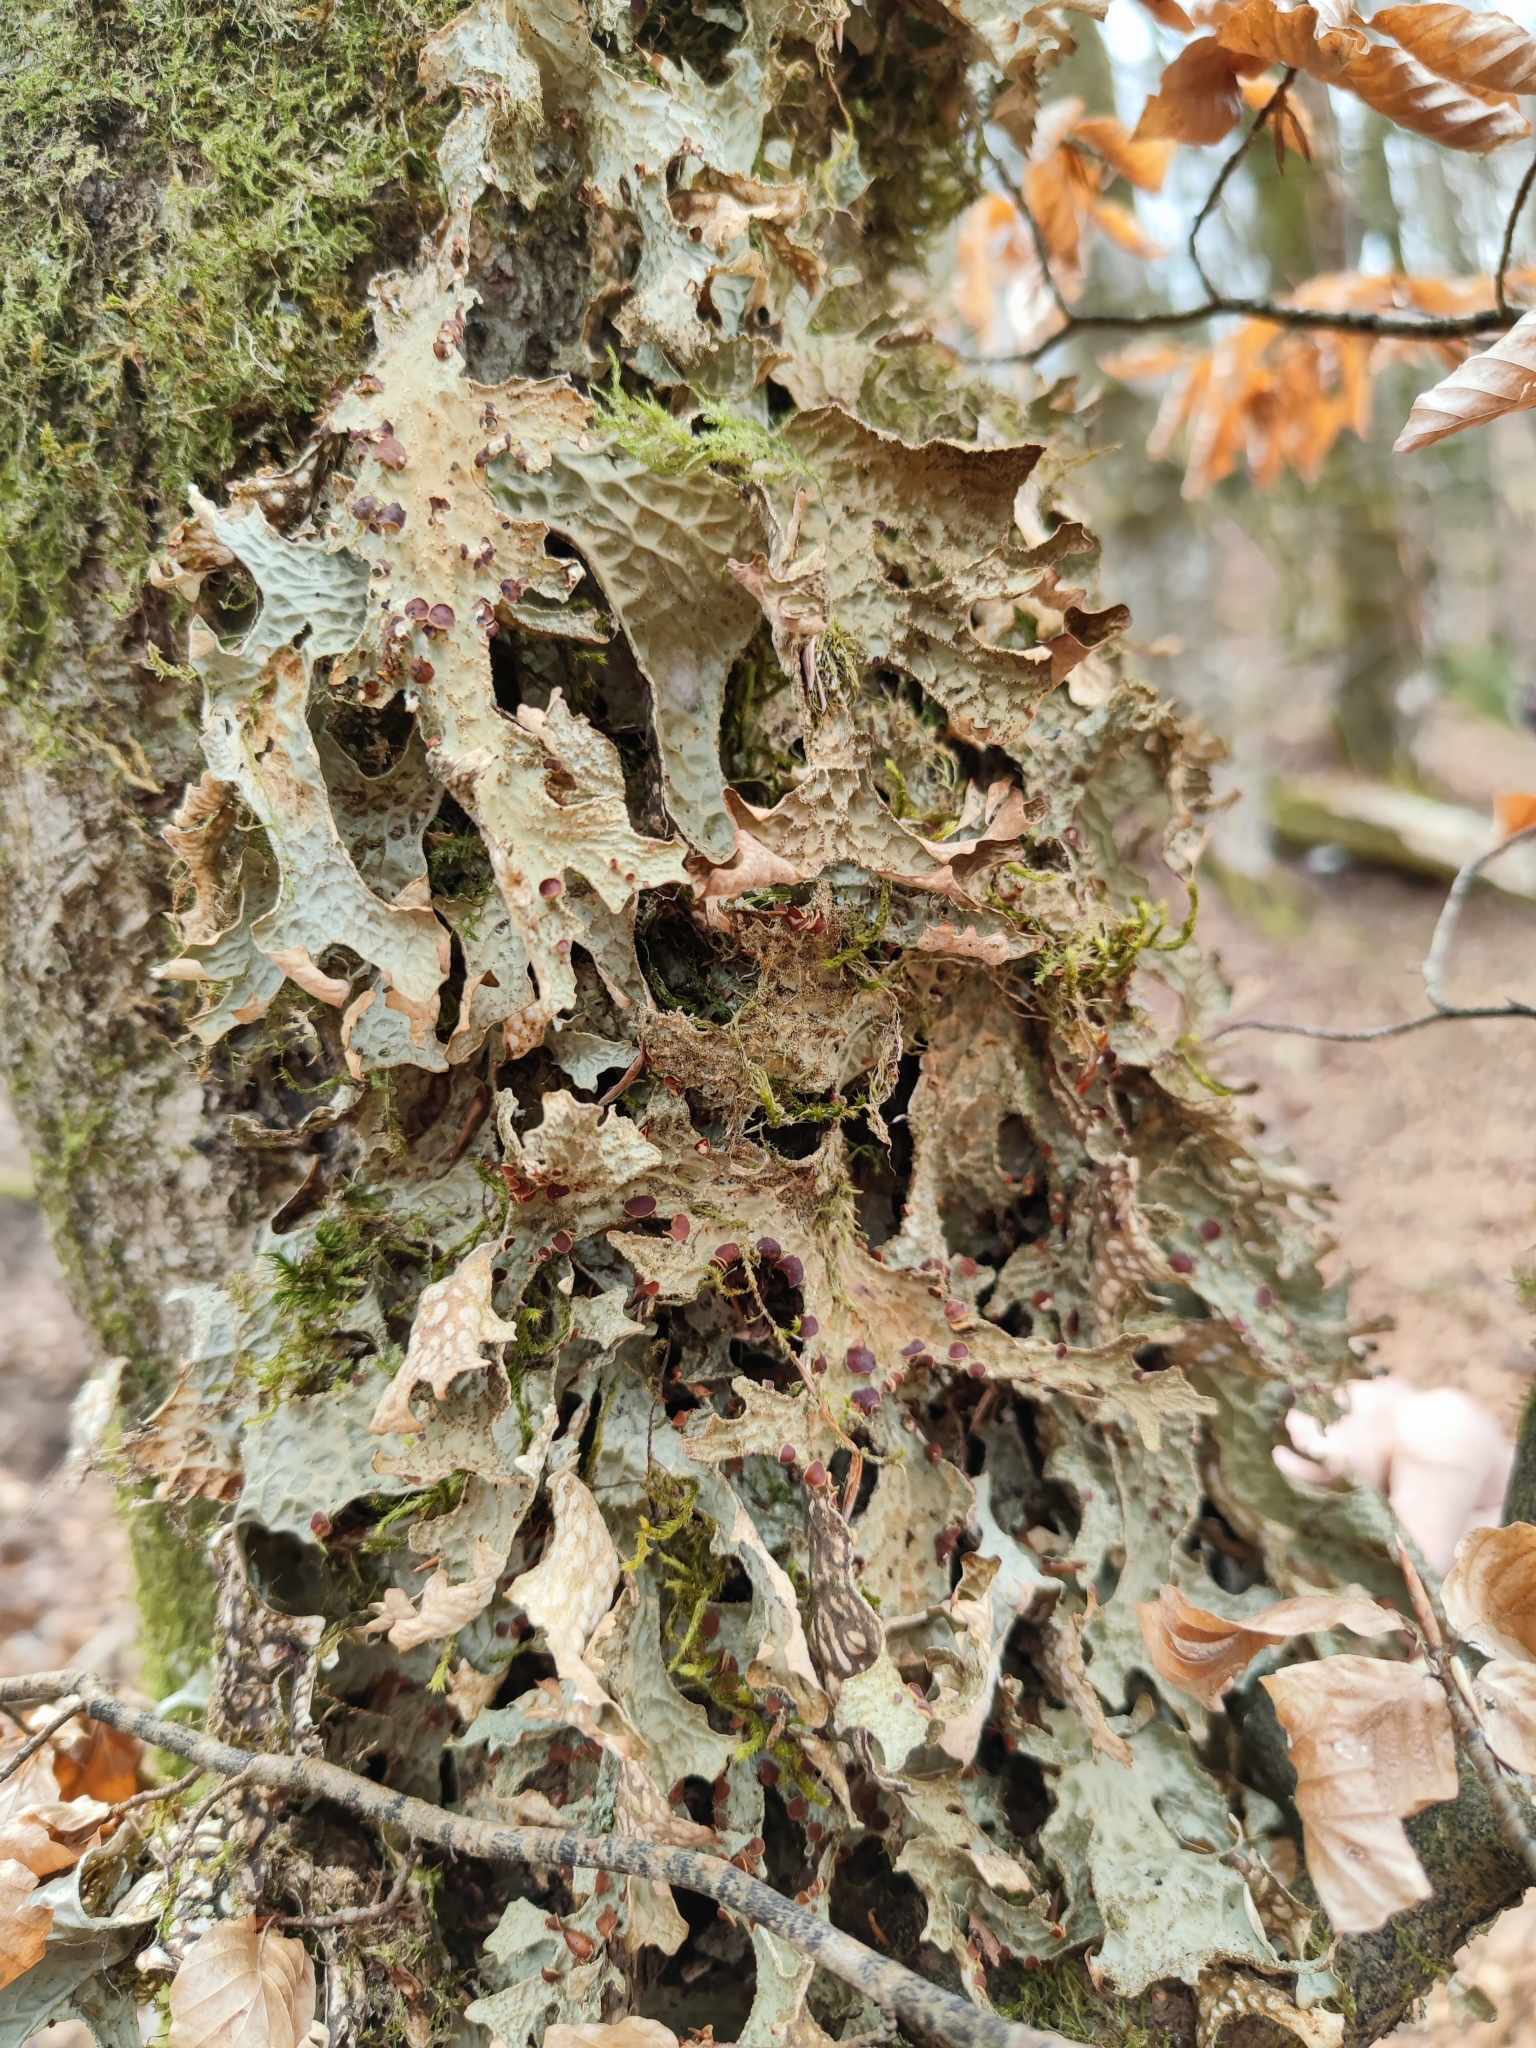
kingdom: Fungi
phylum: Ascomycota
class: Lecanoromycetes
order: Peltigerales
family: Lobariaceae
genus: Lobaria
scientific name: Lobaria pulmonaria
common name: Lungwort
